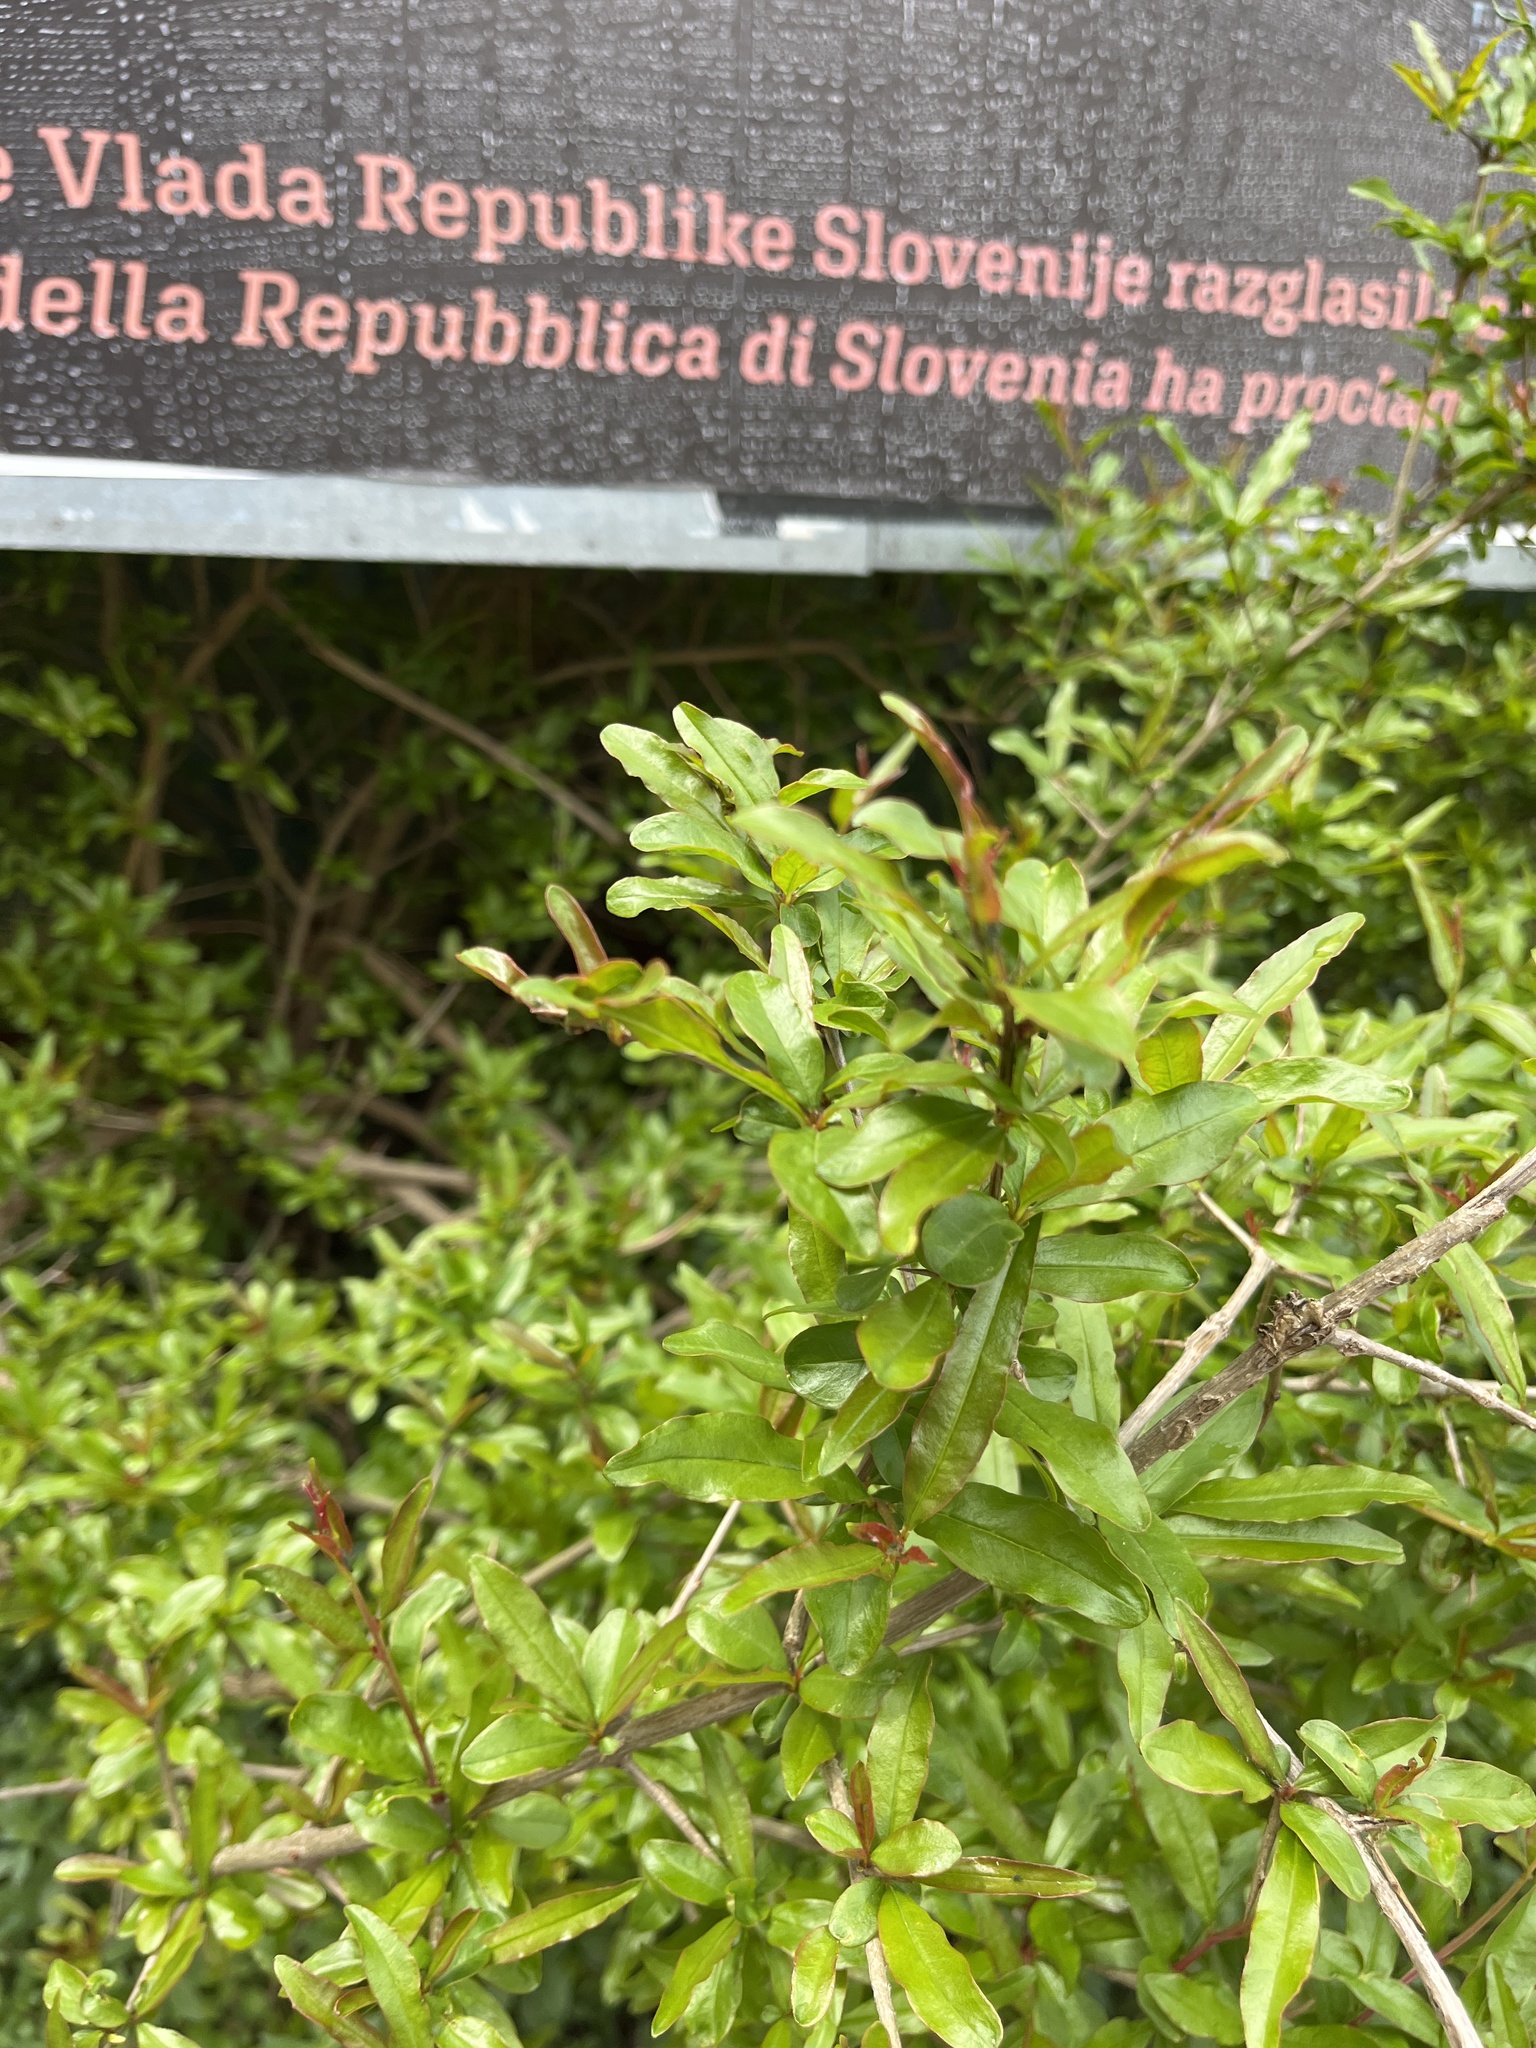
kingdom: Plantae
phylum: Tracheophyta
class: Magnoliopsida
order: Myrtales
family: Lythraceae
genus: Punica
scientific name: Punica granatum
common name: Pomegranate
